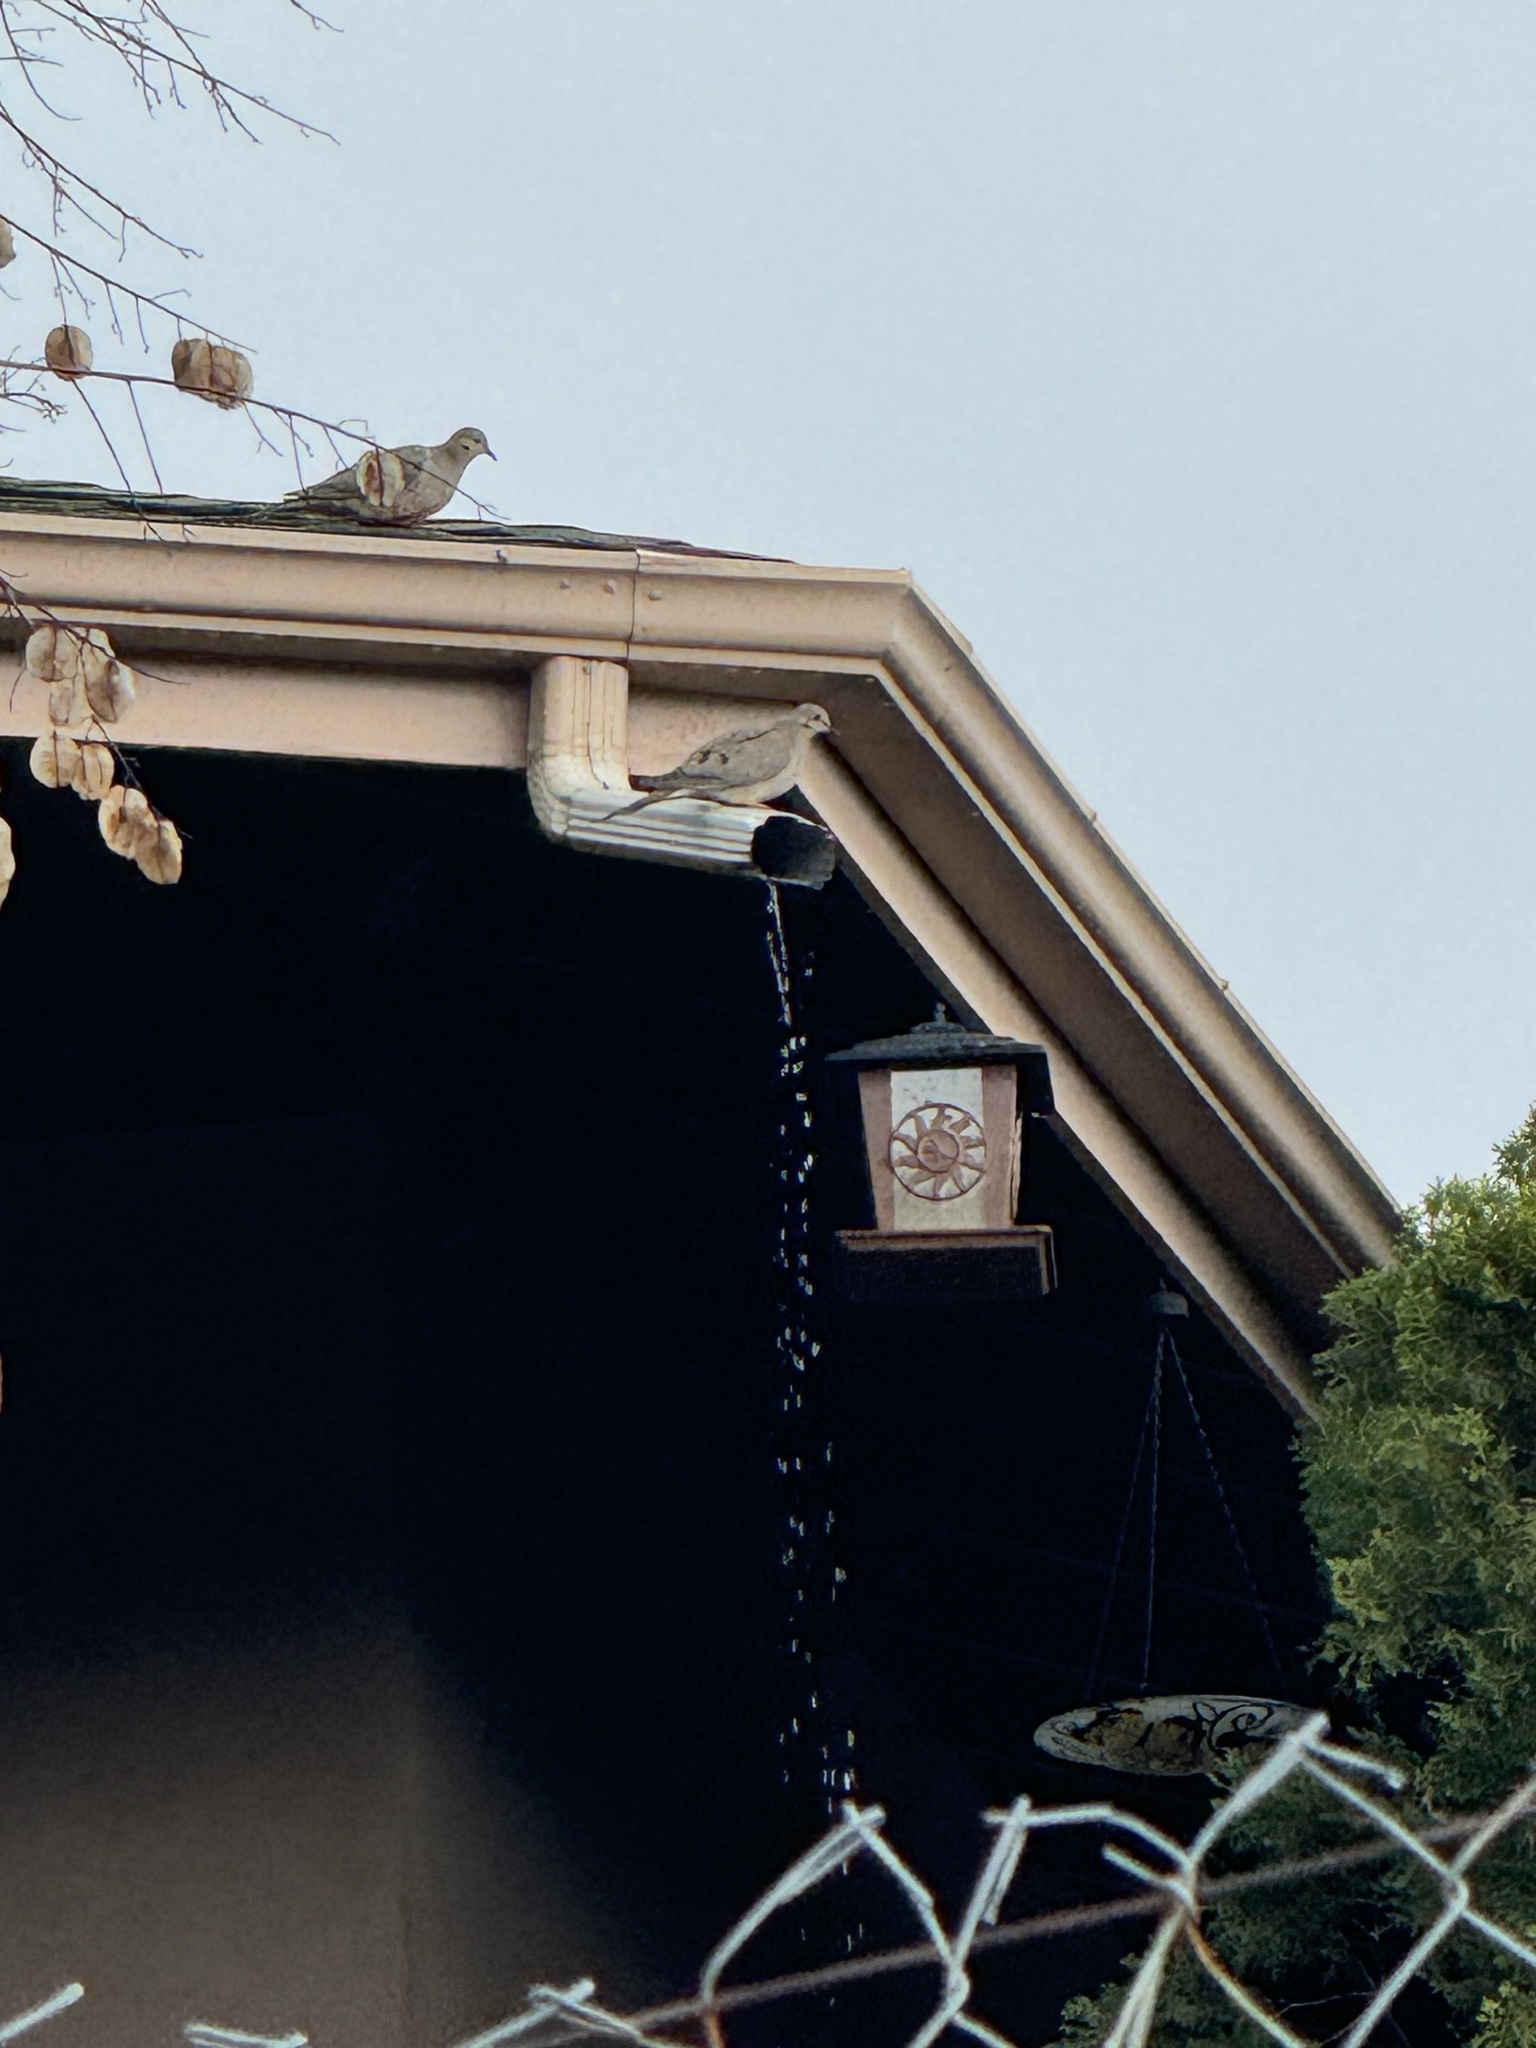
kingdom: Animalia
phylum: Chordata
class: Aves
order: Columbiformes
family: Columbidae
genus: Zenaida
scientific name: Zenaida macroura
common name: Mourning dove
